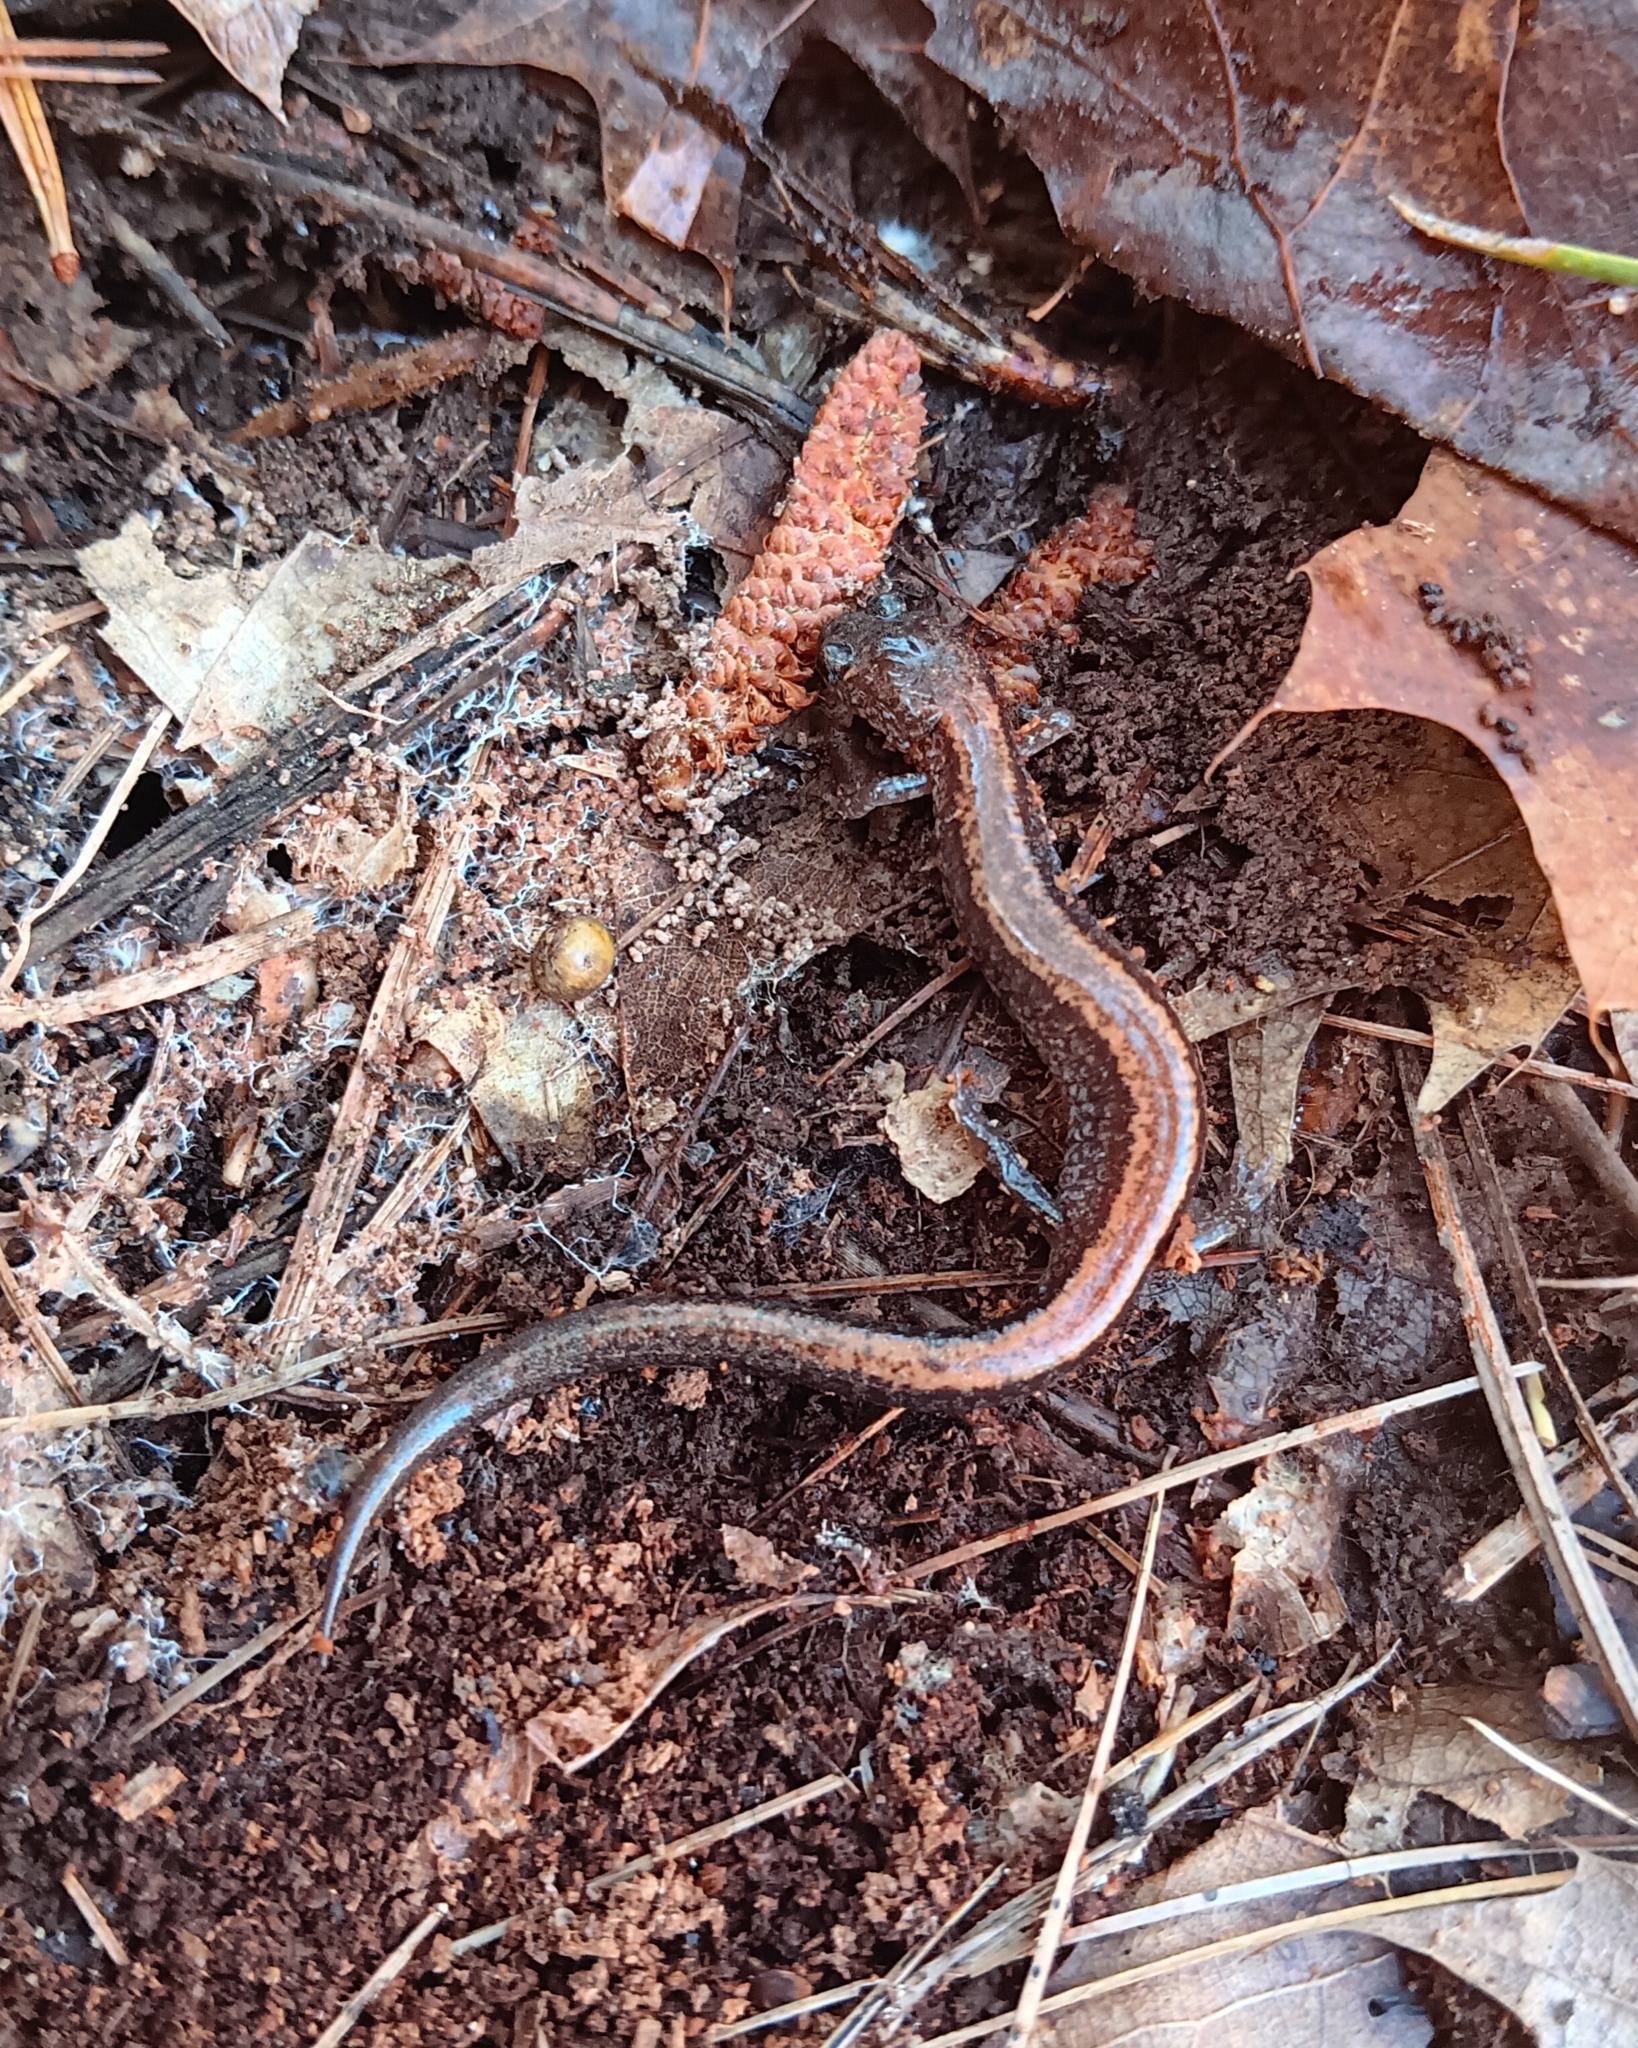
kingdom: Animalia
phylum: Chordata
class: Amphibia
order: Caudata
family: Plethodontidae
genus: Plethodon
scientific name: Plethodon cinereus
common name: Redback salamander
